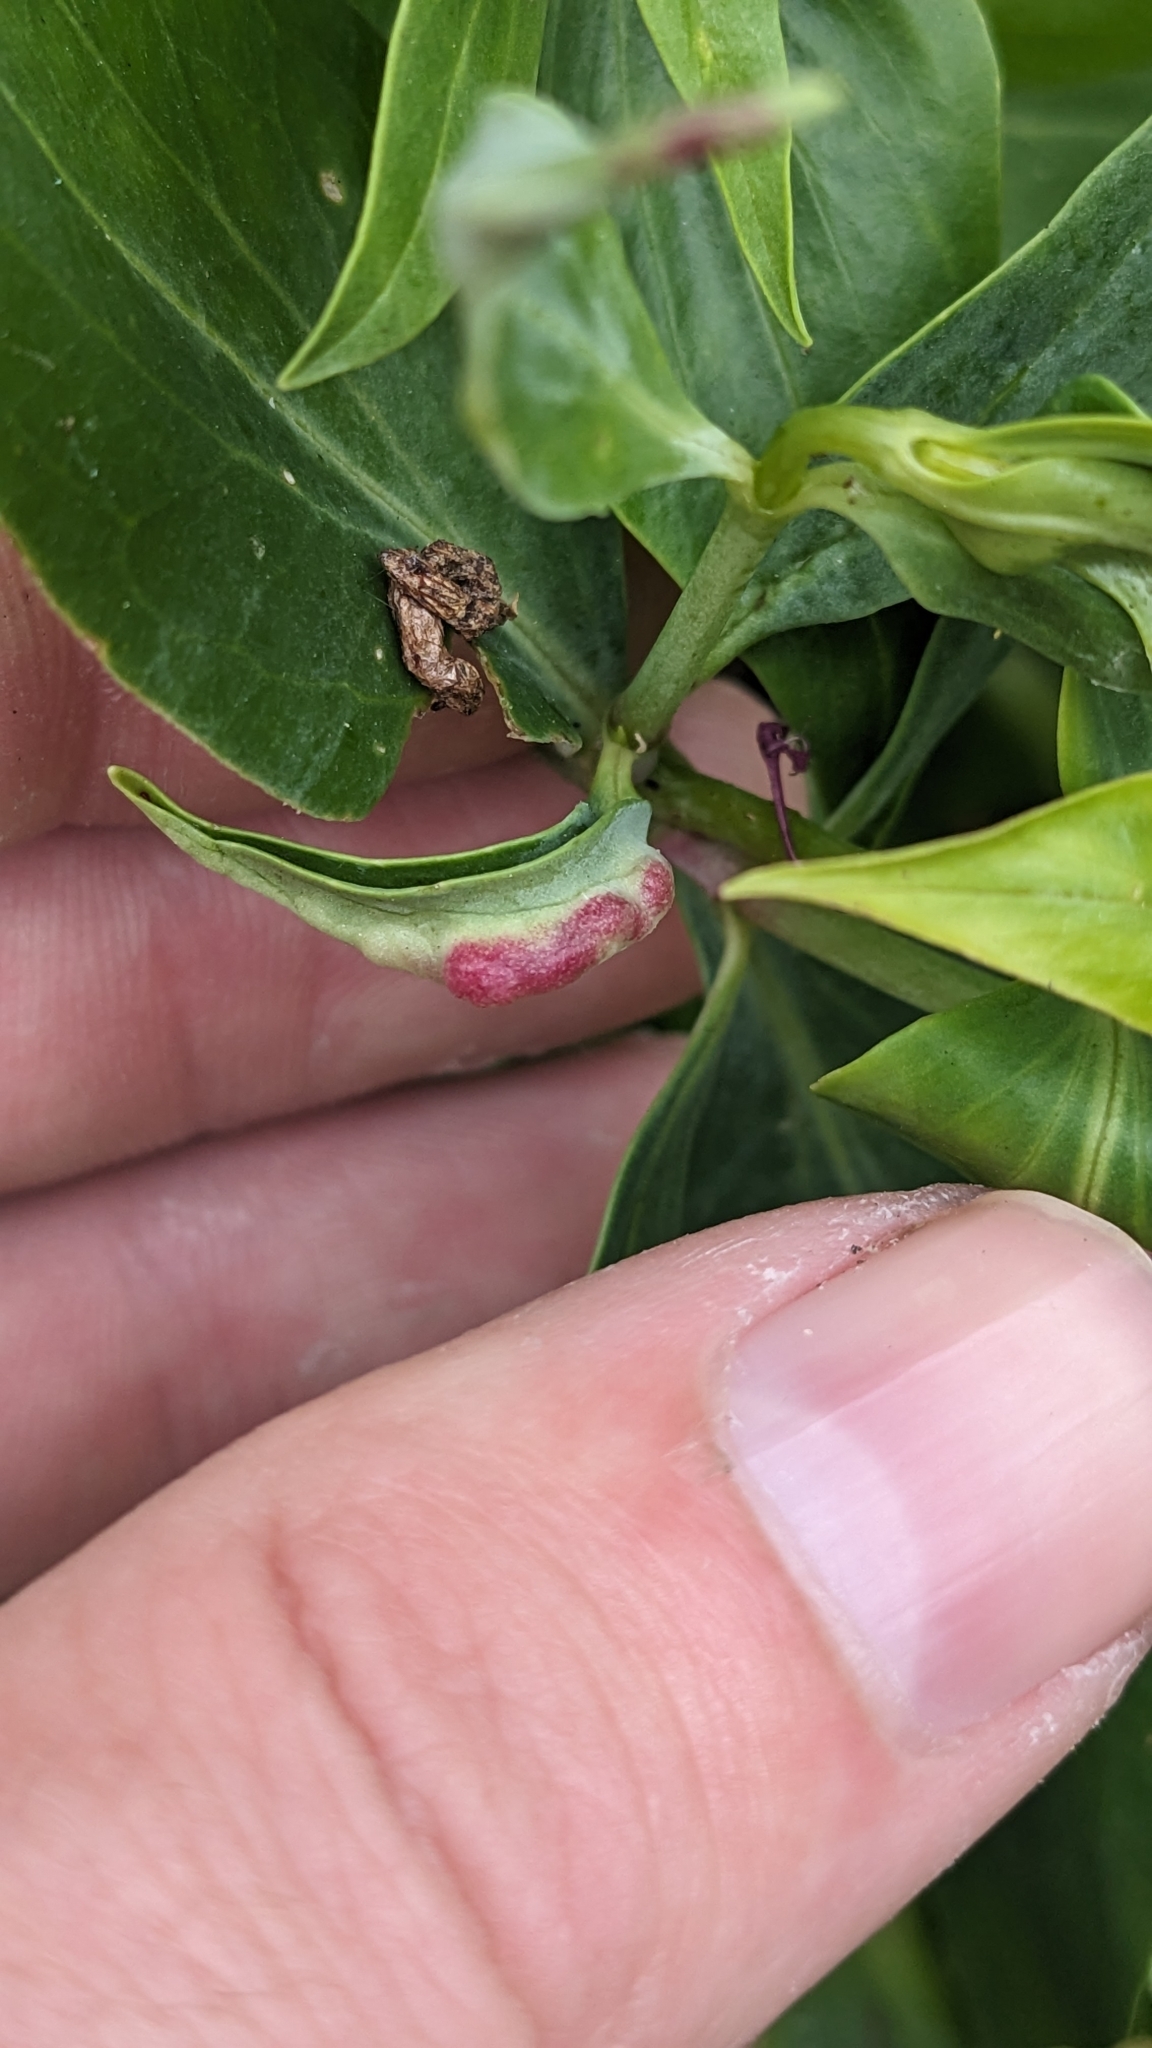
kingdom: Animalia
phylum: Arthropoda
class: Insecta
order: Hemiptera
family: Triozidae
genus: Trioza
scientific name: Trioza centranthi
